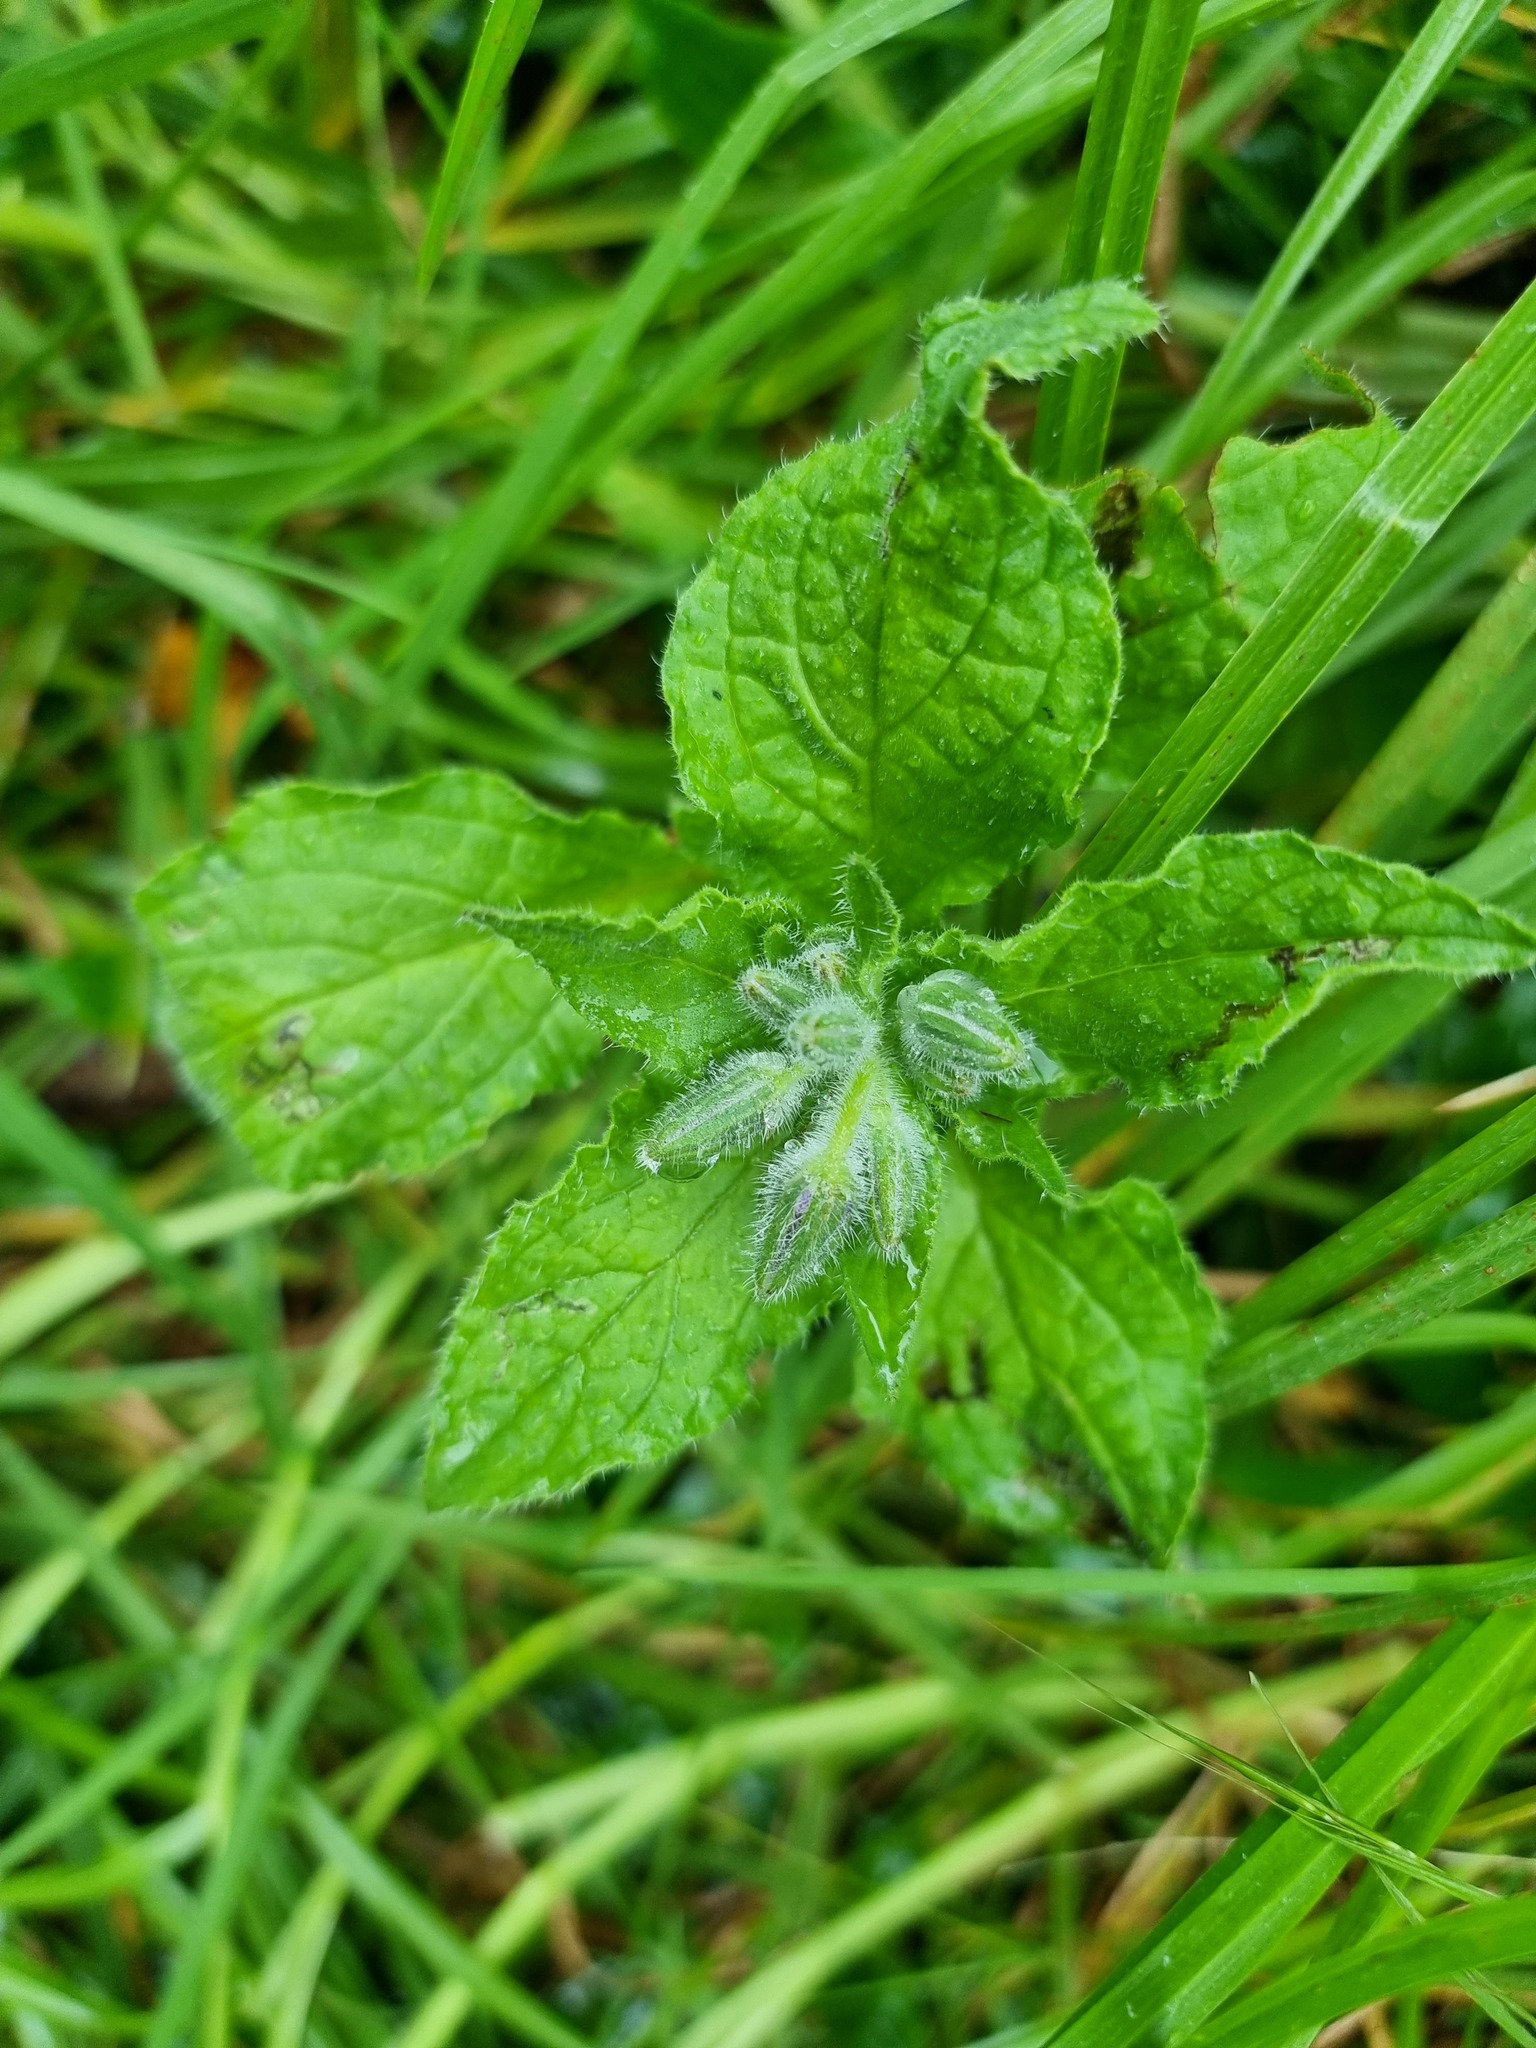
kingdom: Plantae
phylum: Tracheophyta
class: Magnoliopsida
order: Boraginales
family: Boraginaceae
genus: Borago
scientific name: Borago officinalis
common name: Borage
